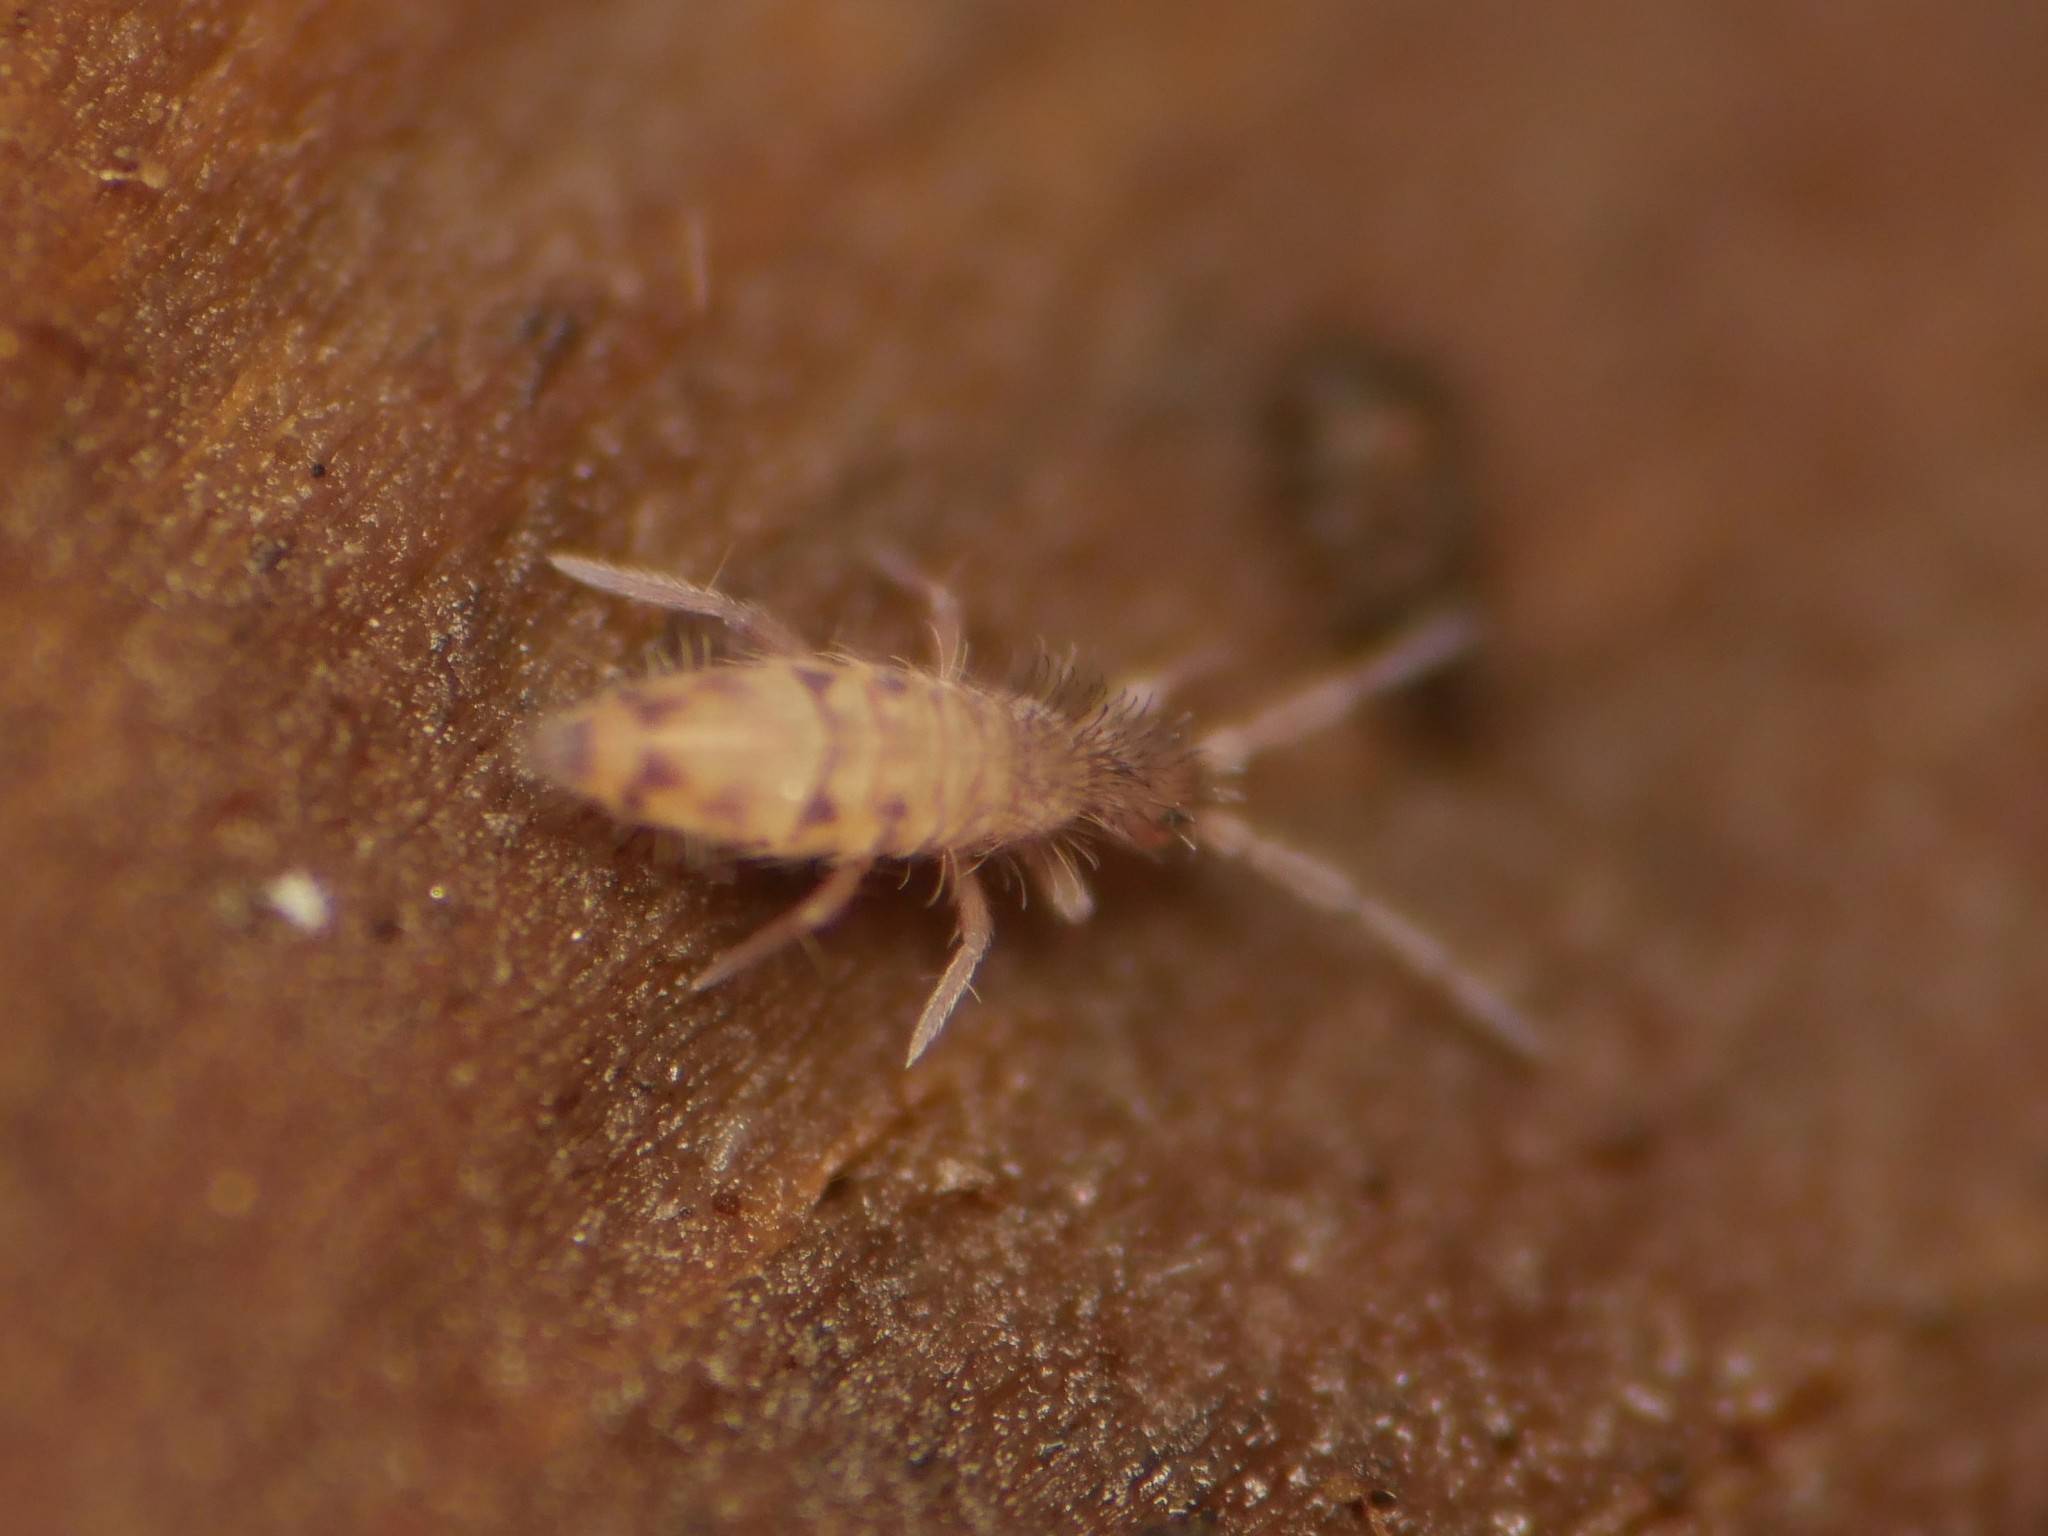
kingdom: Animalia
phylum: Arthropoda
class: Collembola
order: Entomobryomorpha
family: Entomobryidae
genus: Entomobrya
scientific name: Entomobrya multifasciata
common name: Springtail
